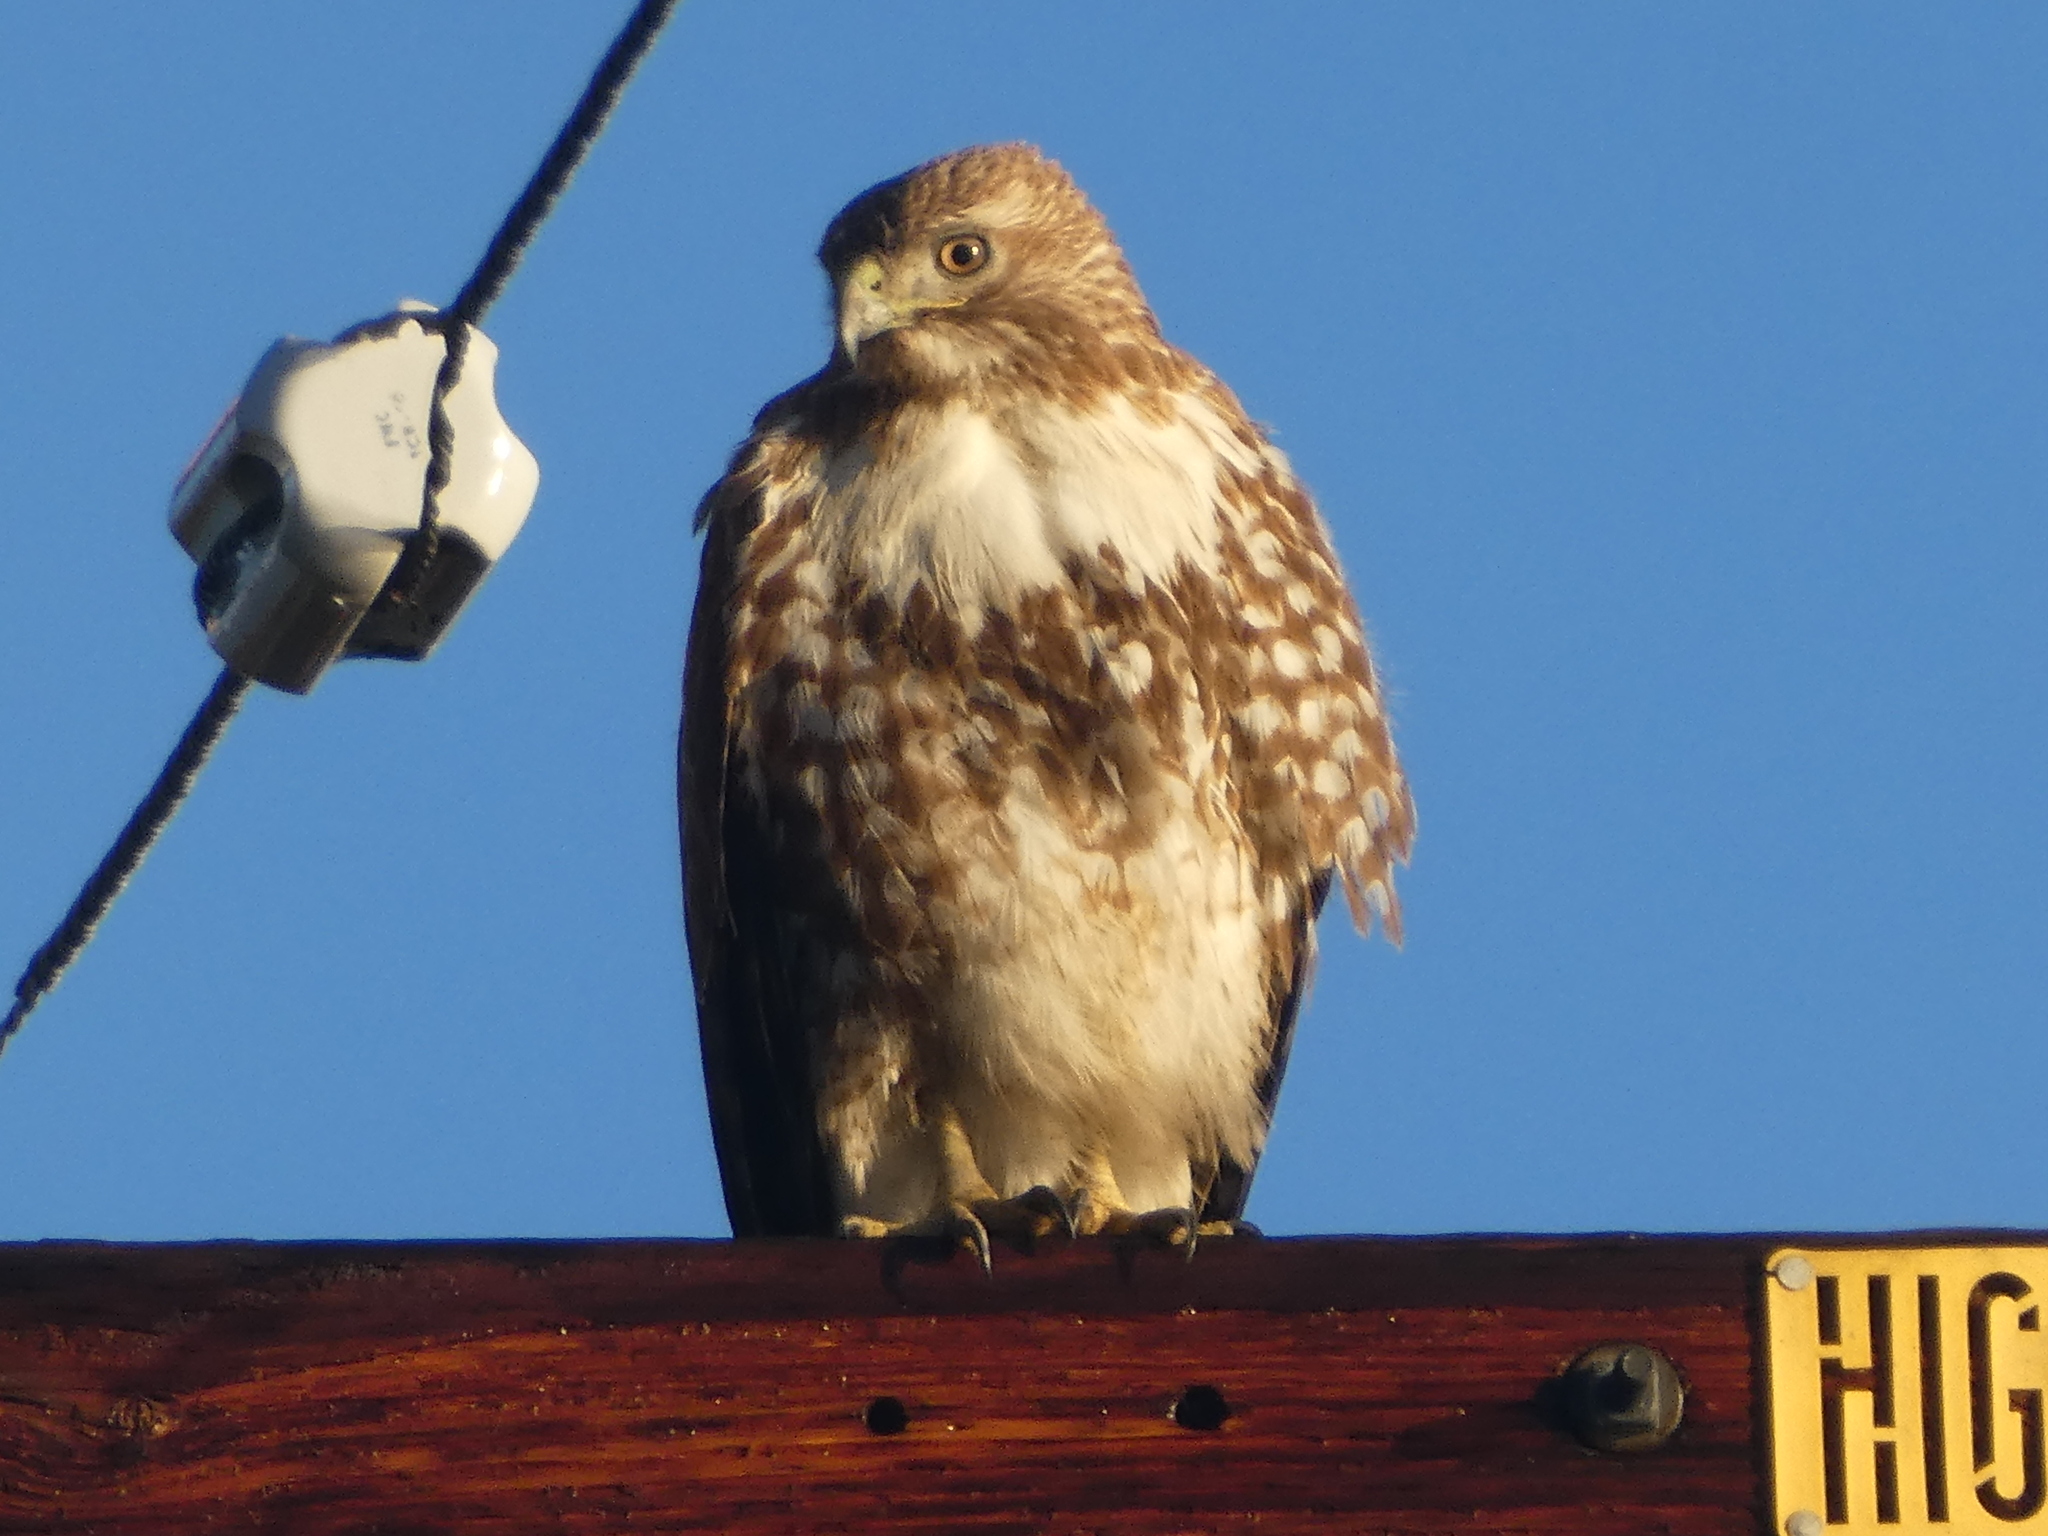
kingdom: Animalia
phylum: Chordata
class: Aves
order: Accipitriformes
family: Accipitridae
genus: Buteo
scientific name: Buteo jamaicensis
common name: Red-tailed hawk
